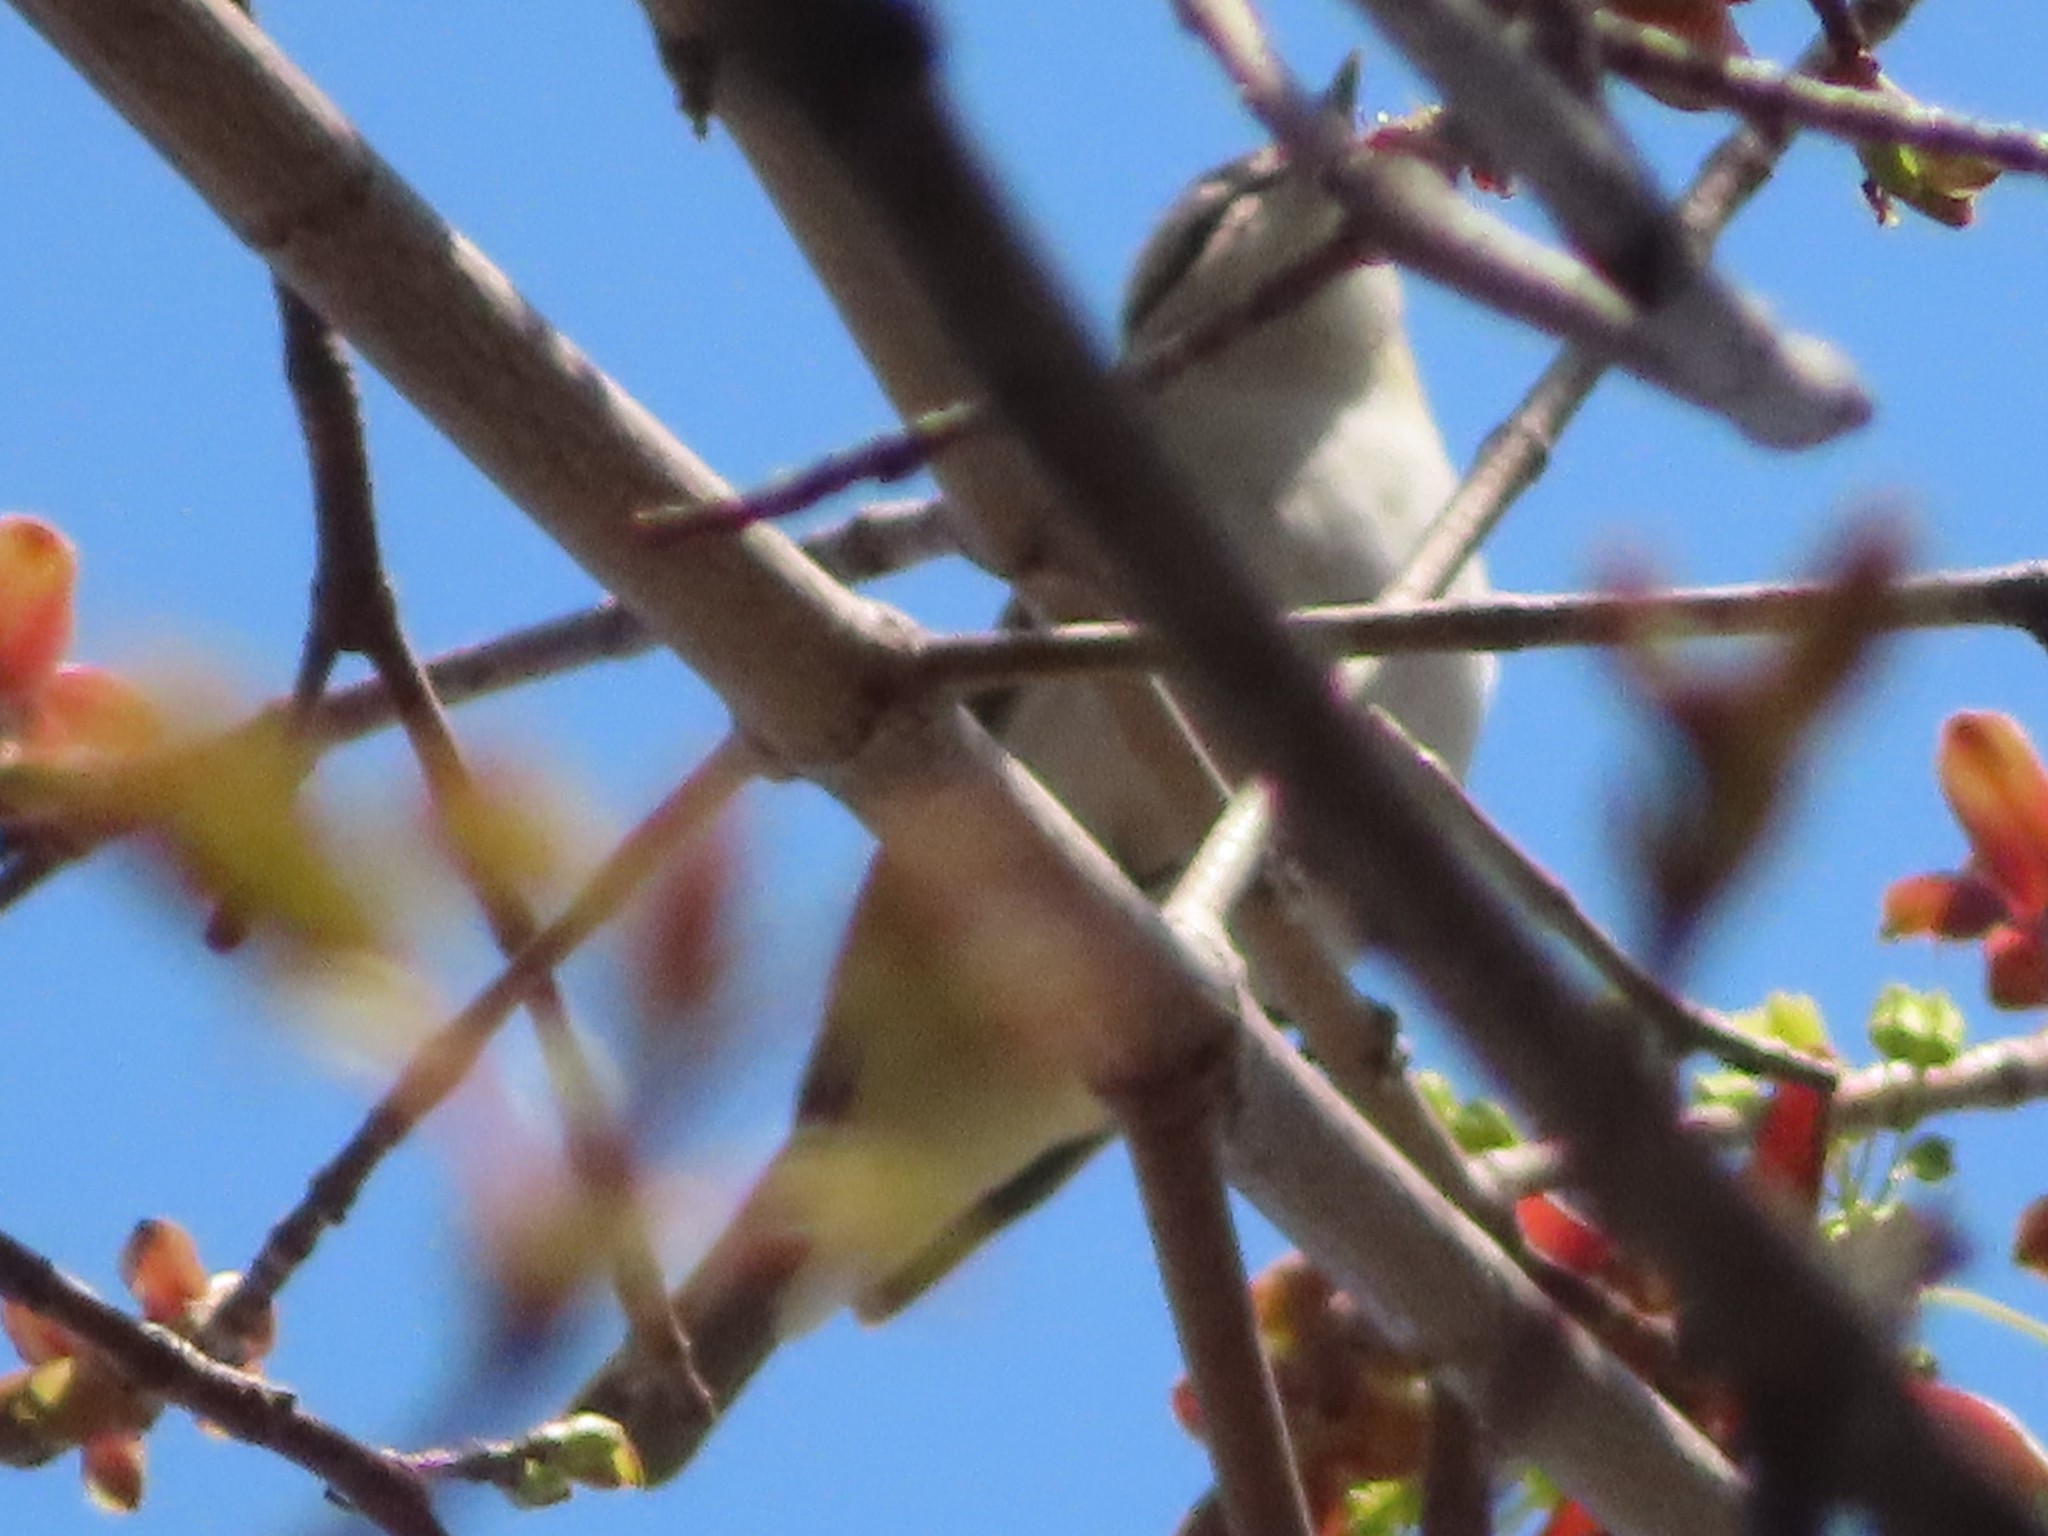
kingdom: Animalia
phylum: Chordata
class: Aves
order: Passeriformes
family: Vireonidae
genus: Vireo
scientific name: Vireo olivaceus
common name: Red-eyed vireo
